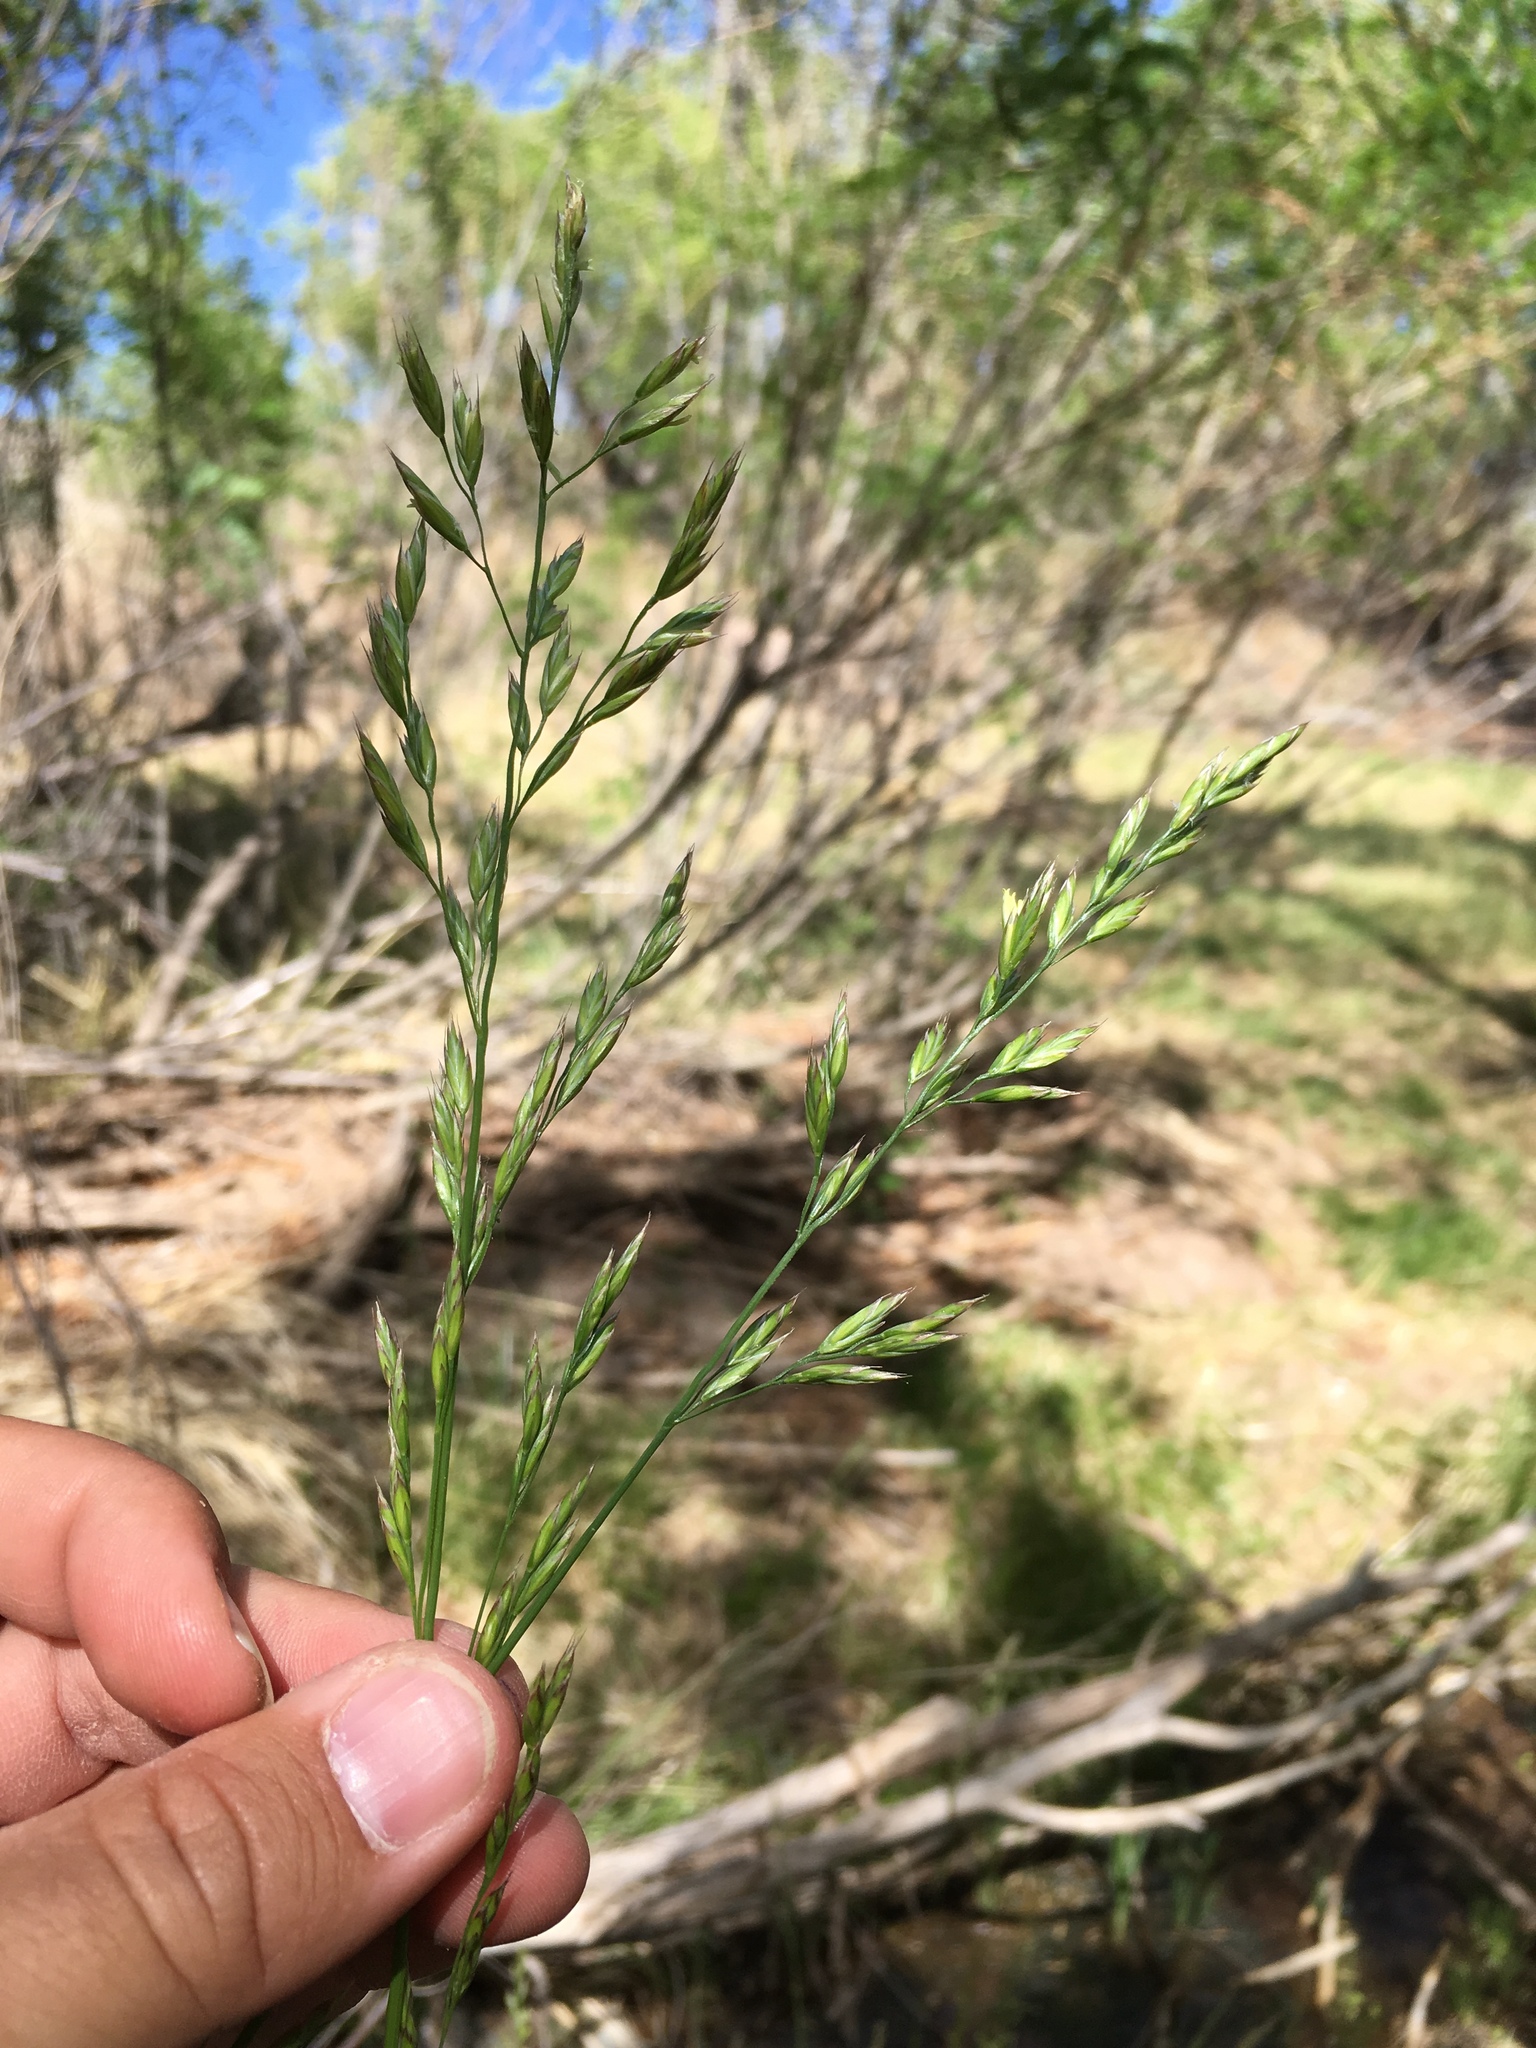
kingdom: Plantae
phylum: Tracheophyta
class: Liliopsida
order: Poales
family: Poaceae
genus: Lolium
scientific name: Lolium arundinaceum
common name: Reed fescue
